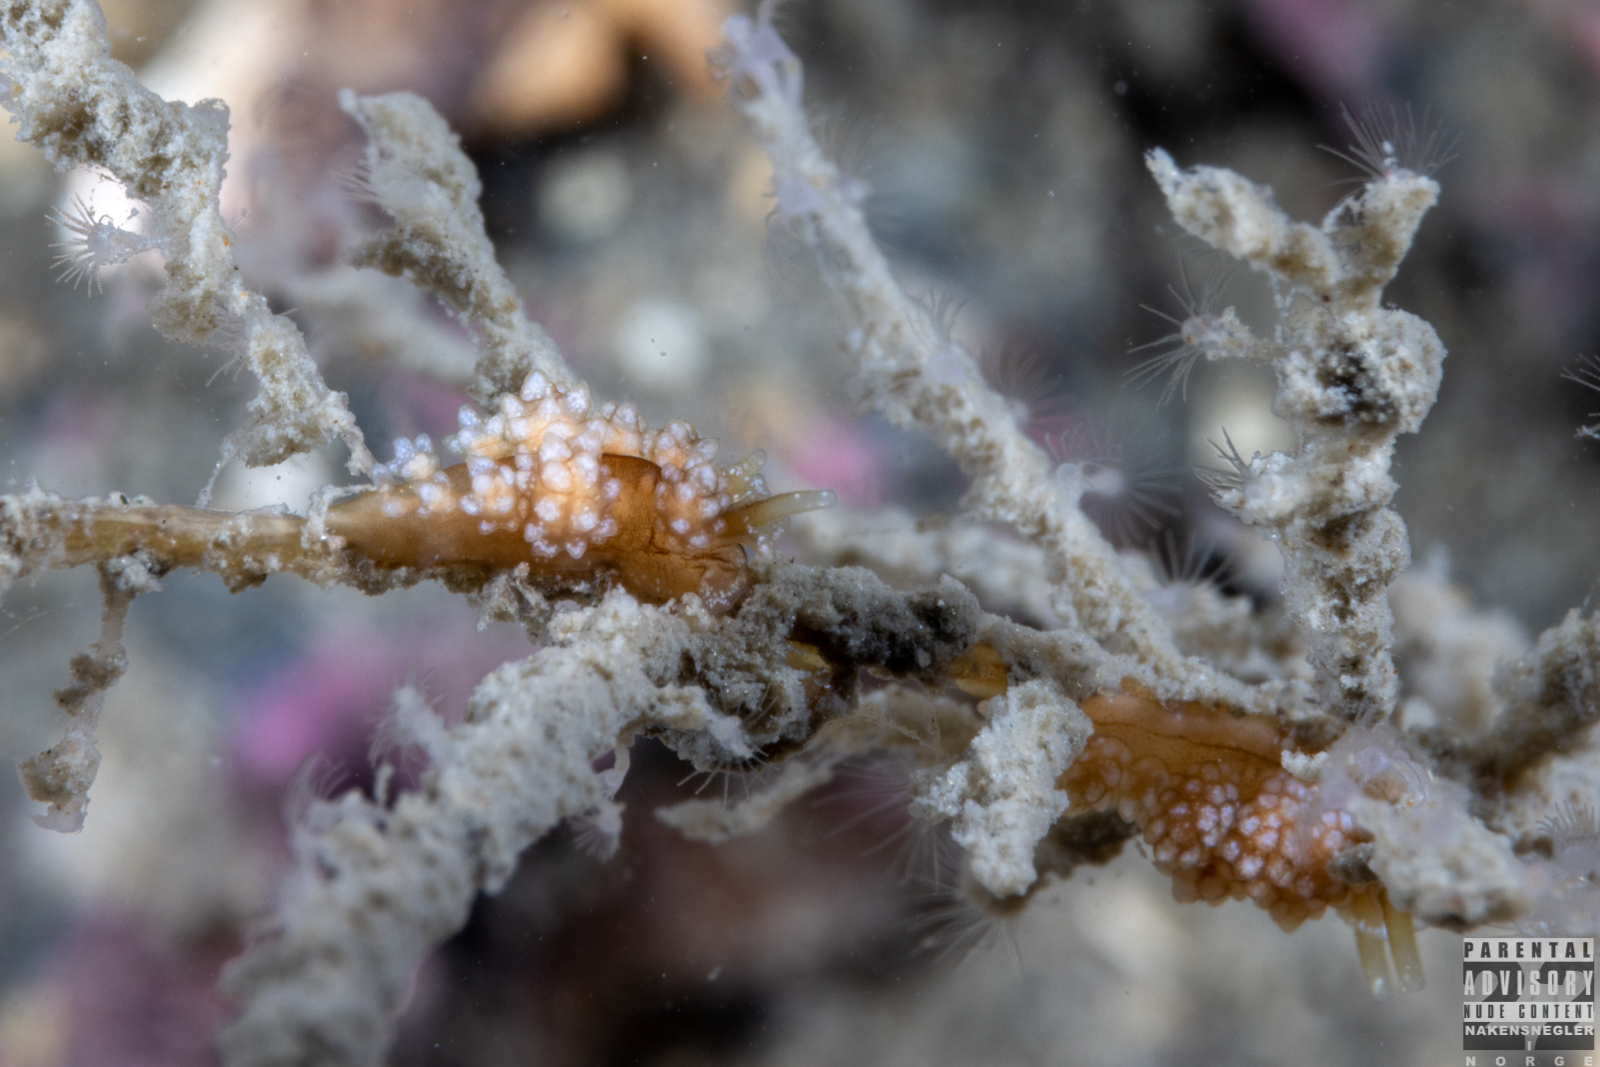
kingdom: Animalia
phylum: Mollusca
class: Gastropoda
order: Nudibranchia
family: Dotidae
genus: Doto
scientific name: Doto fragilis
